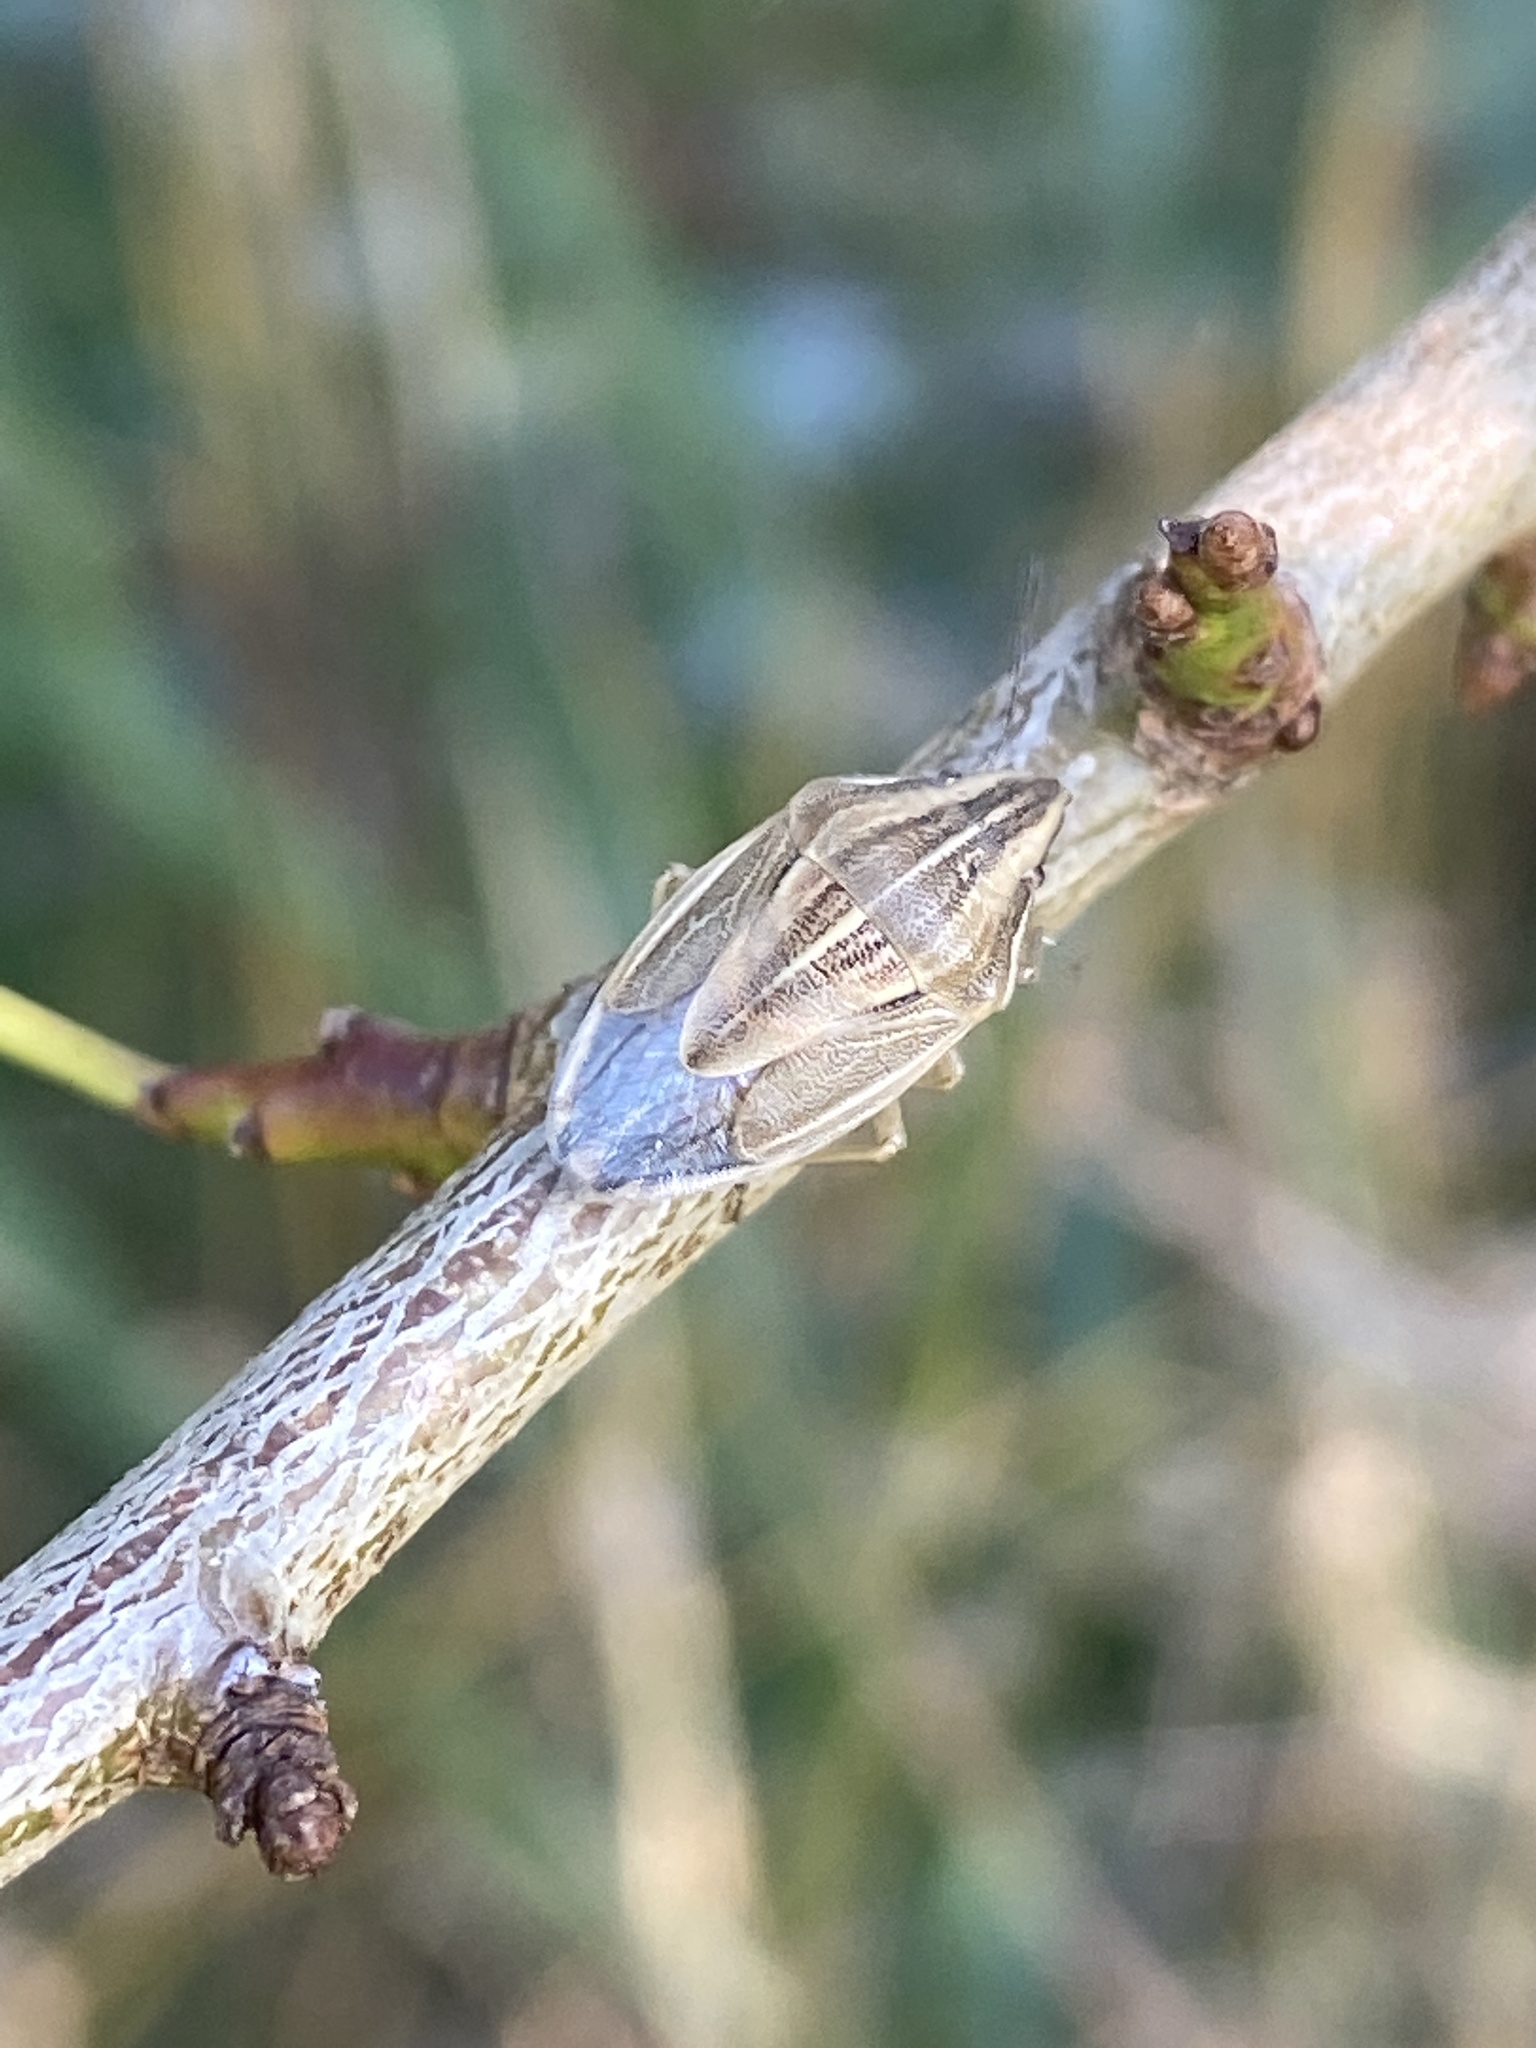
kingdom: Animalia
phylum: Arthropoda
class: Insecta
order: Hemiptera
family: Pentatomidae
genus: Aelia
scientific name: Aelia acuminata
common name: Bishop's mitre
